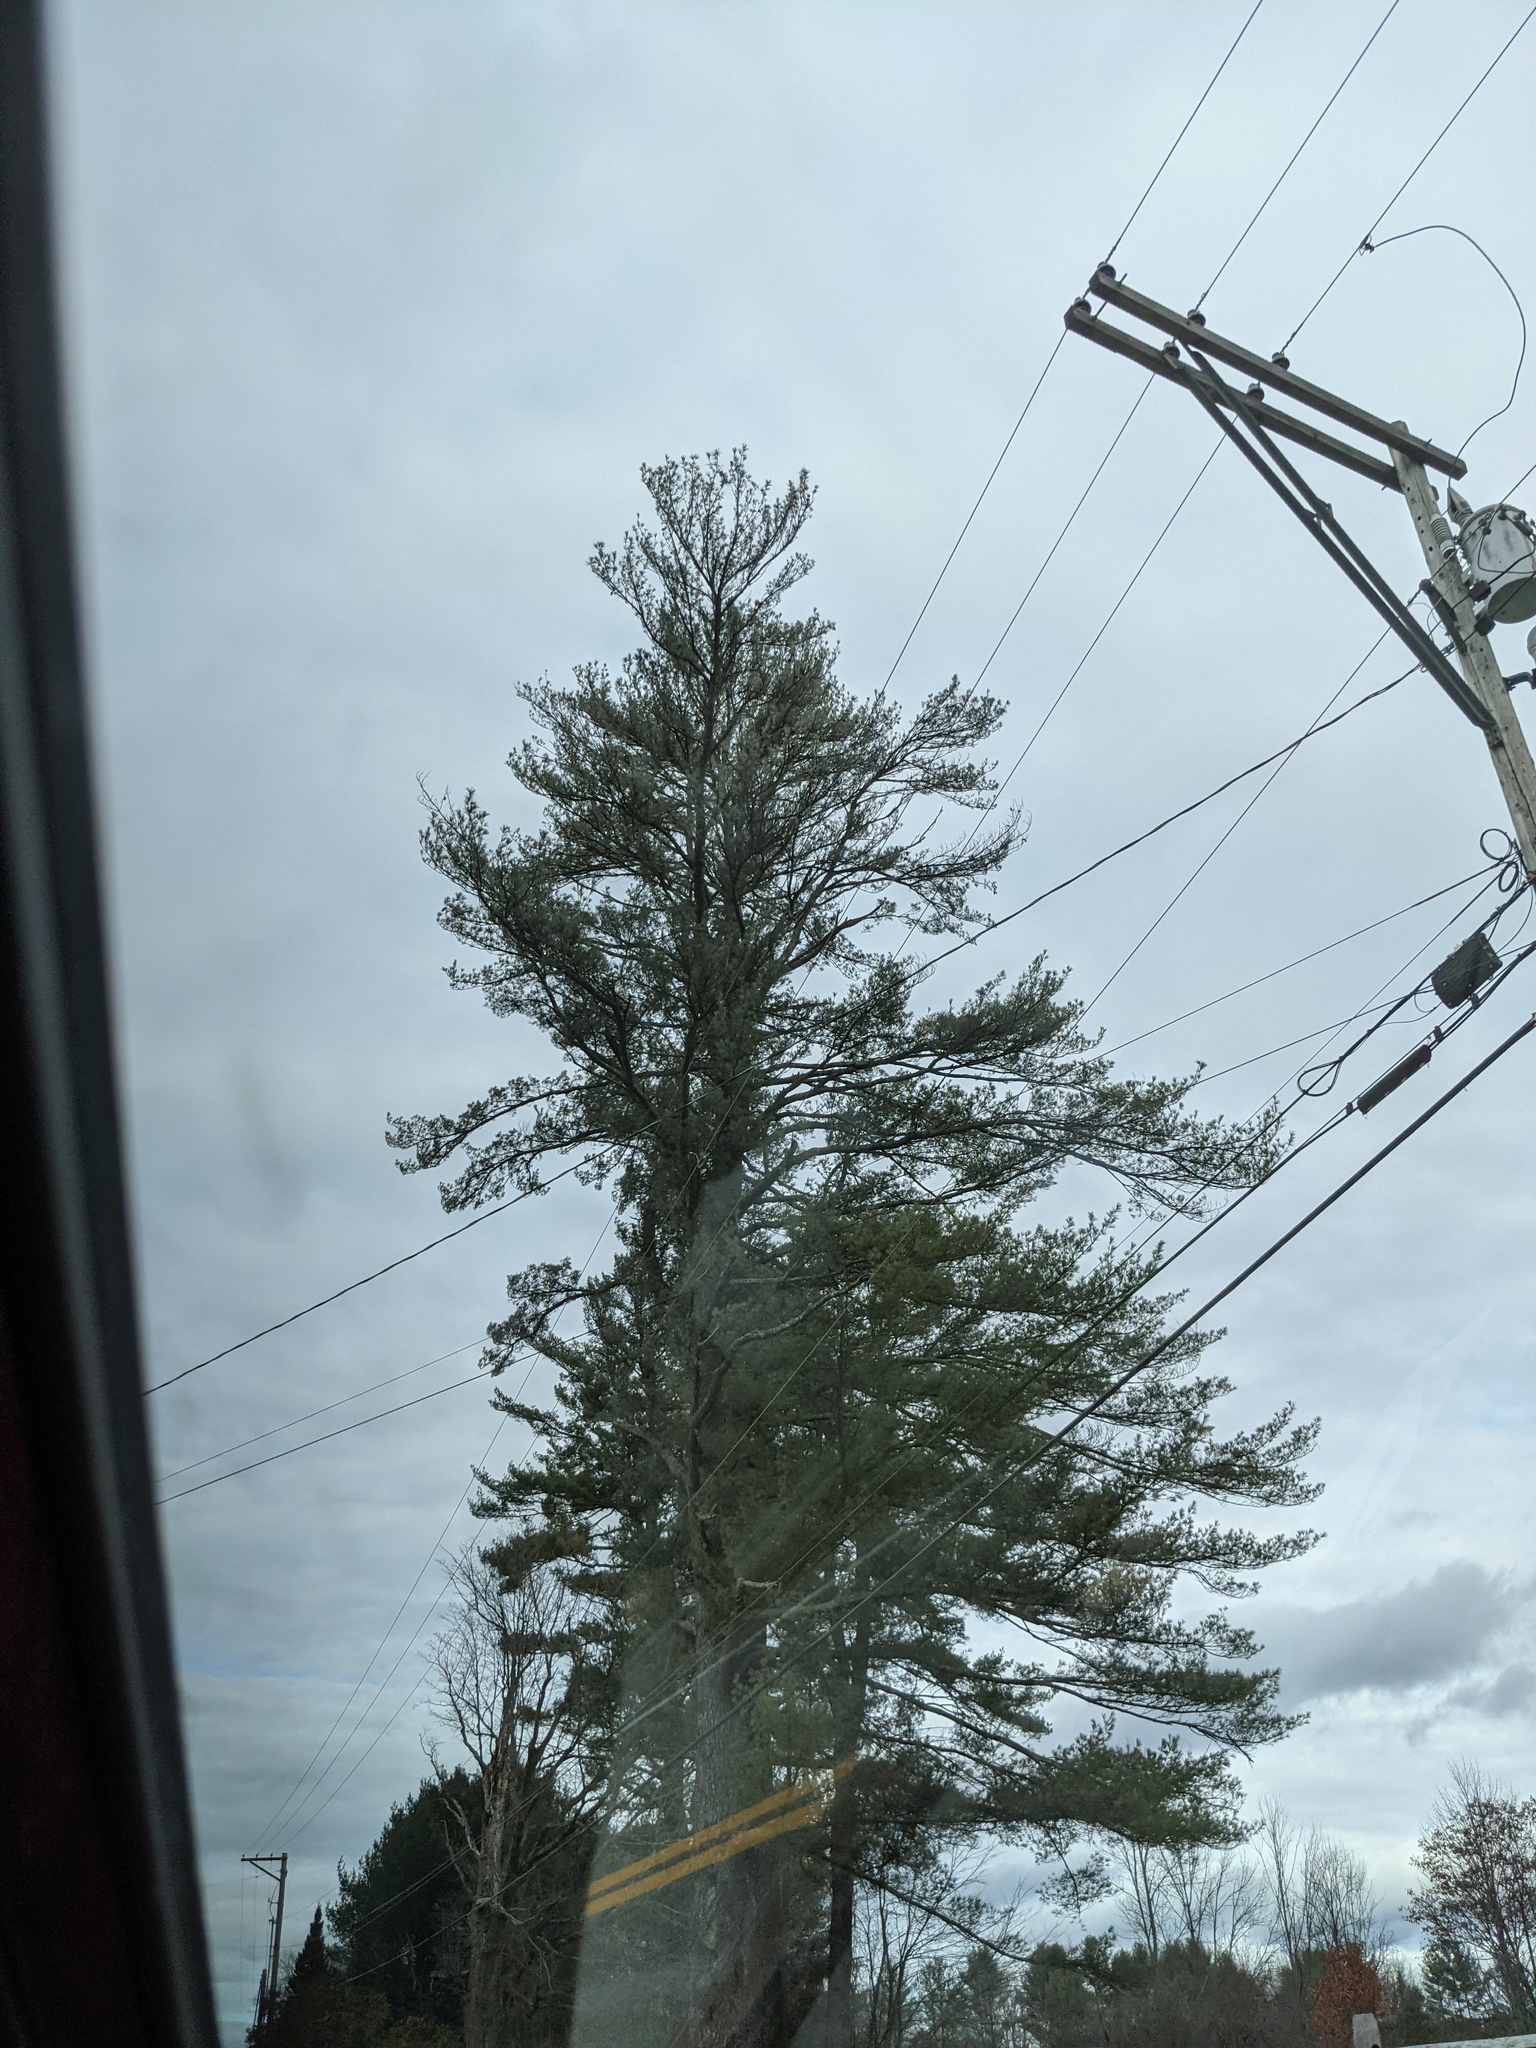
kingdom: Plantae
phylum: Tracheophyta
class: Pinopsida
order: Pinales
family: Pinaceae
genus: Pinus
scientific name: Pinus strobus
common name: Weymouth pine
